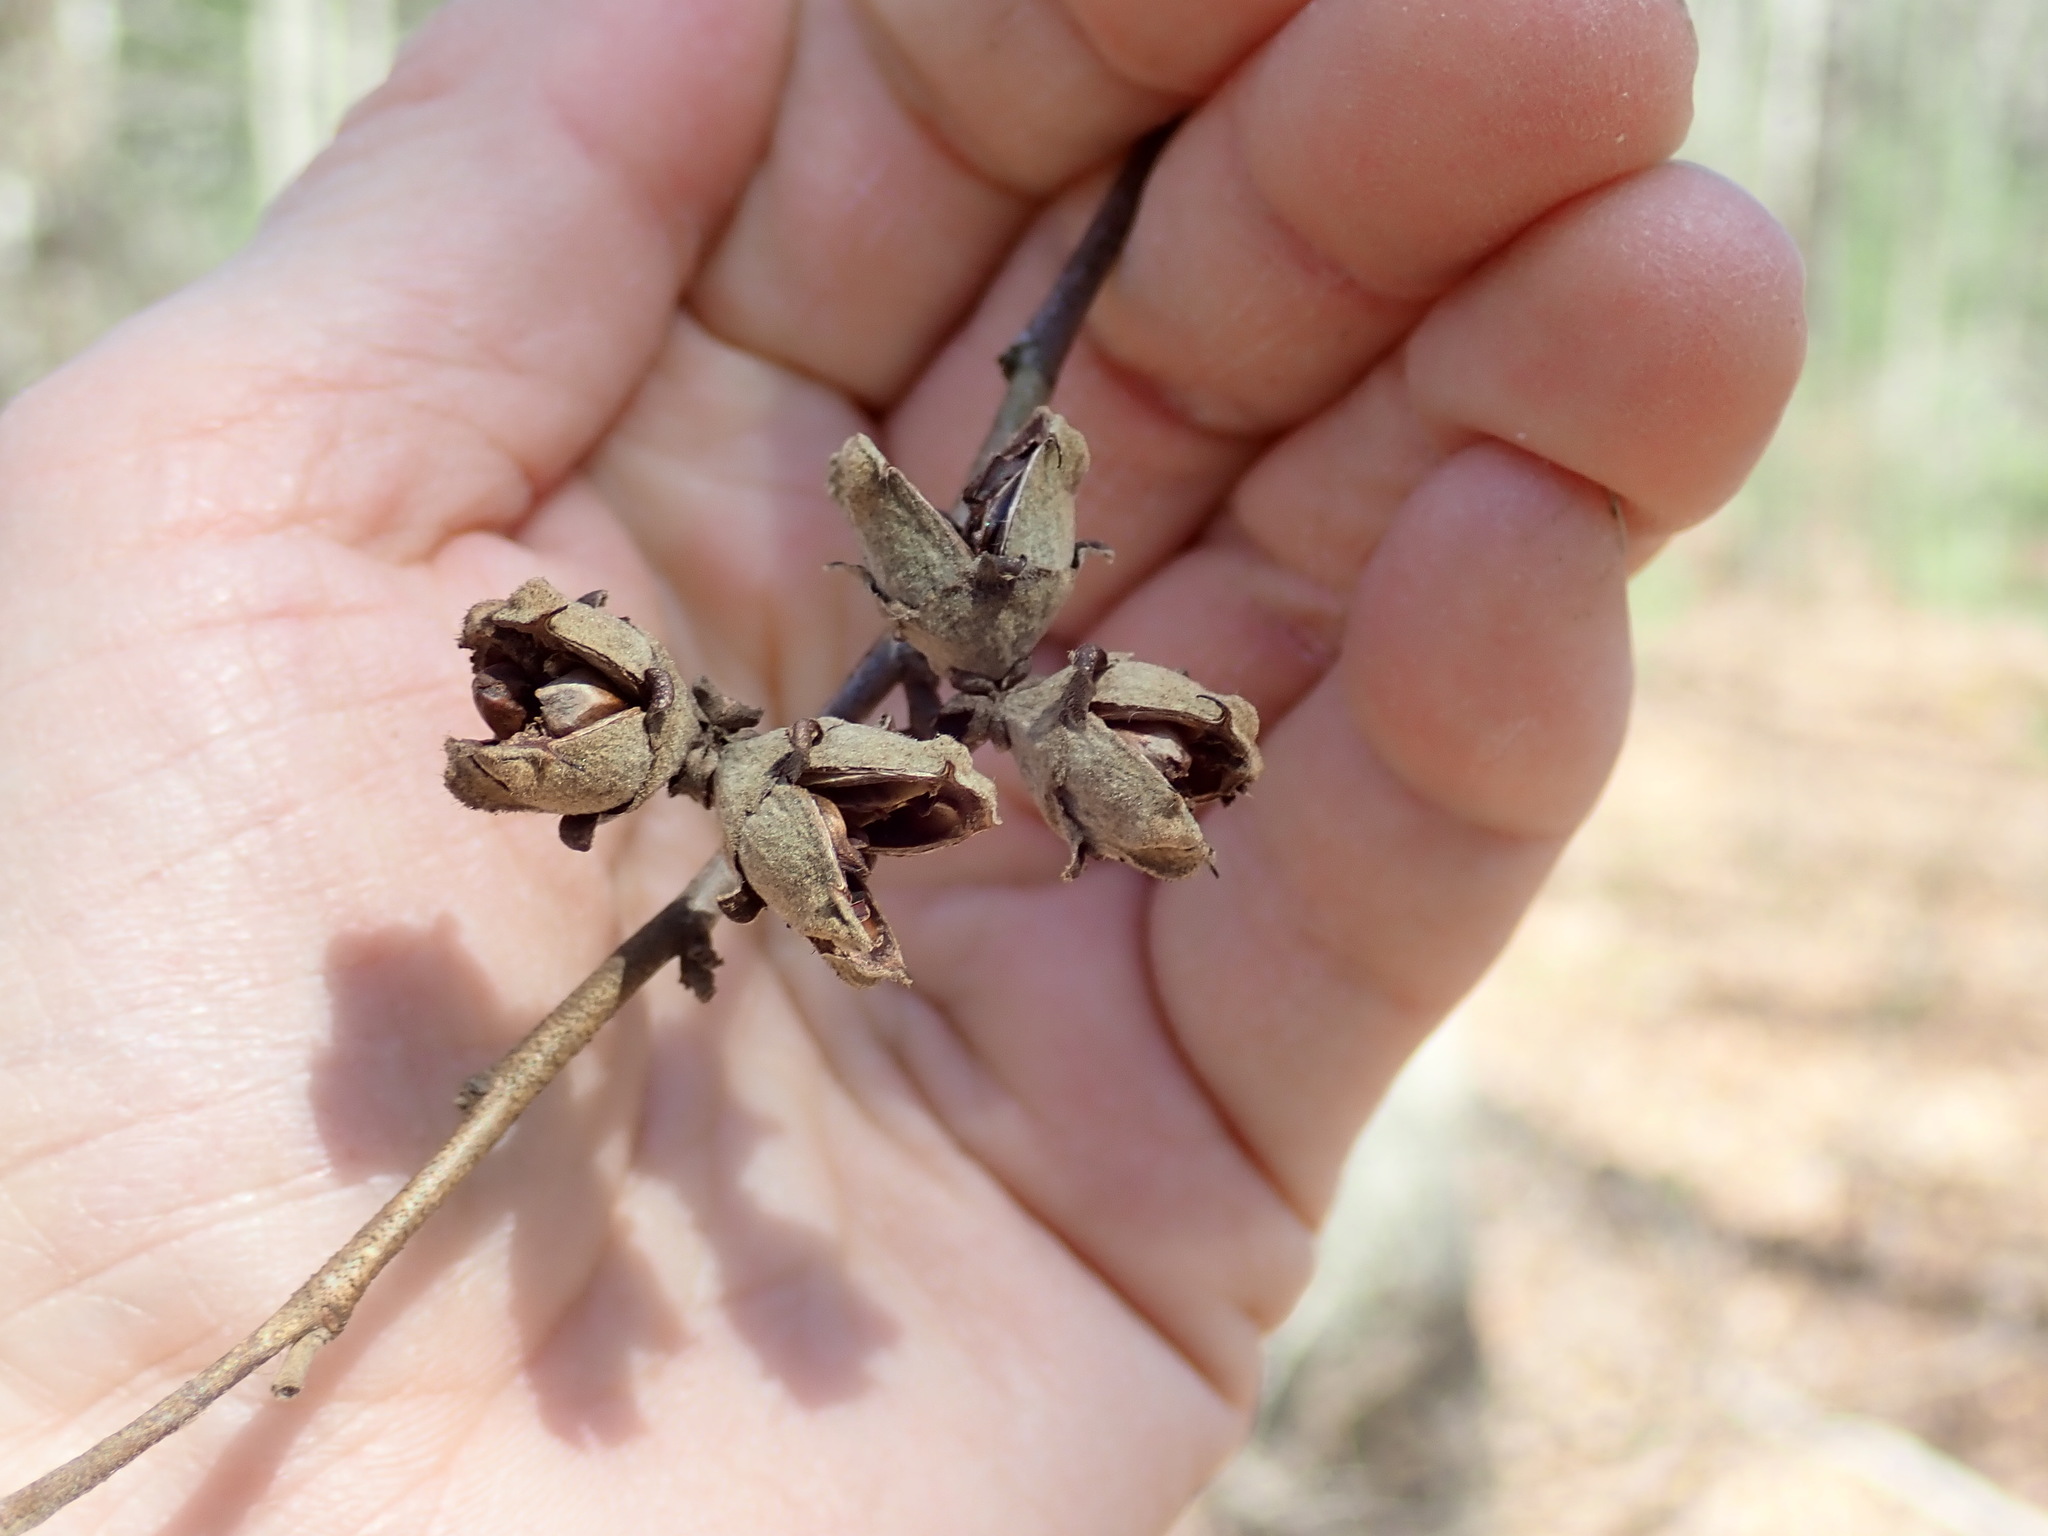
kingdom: Plantae
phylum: Tracheophyta
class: Magnoliopsida
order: Saxifragales
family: Hamamelidaceae
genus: Hamamelis
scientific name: Hamamelis virginiana
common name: Witch-hazel
